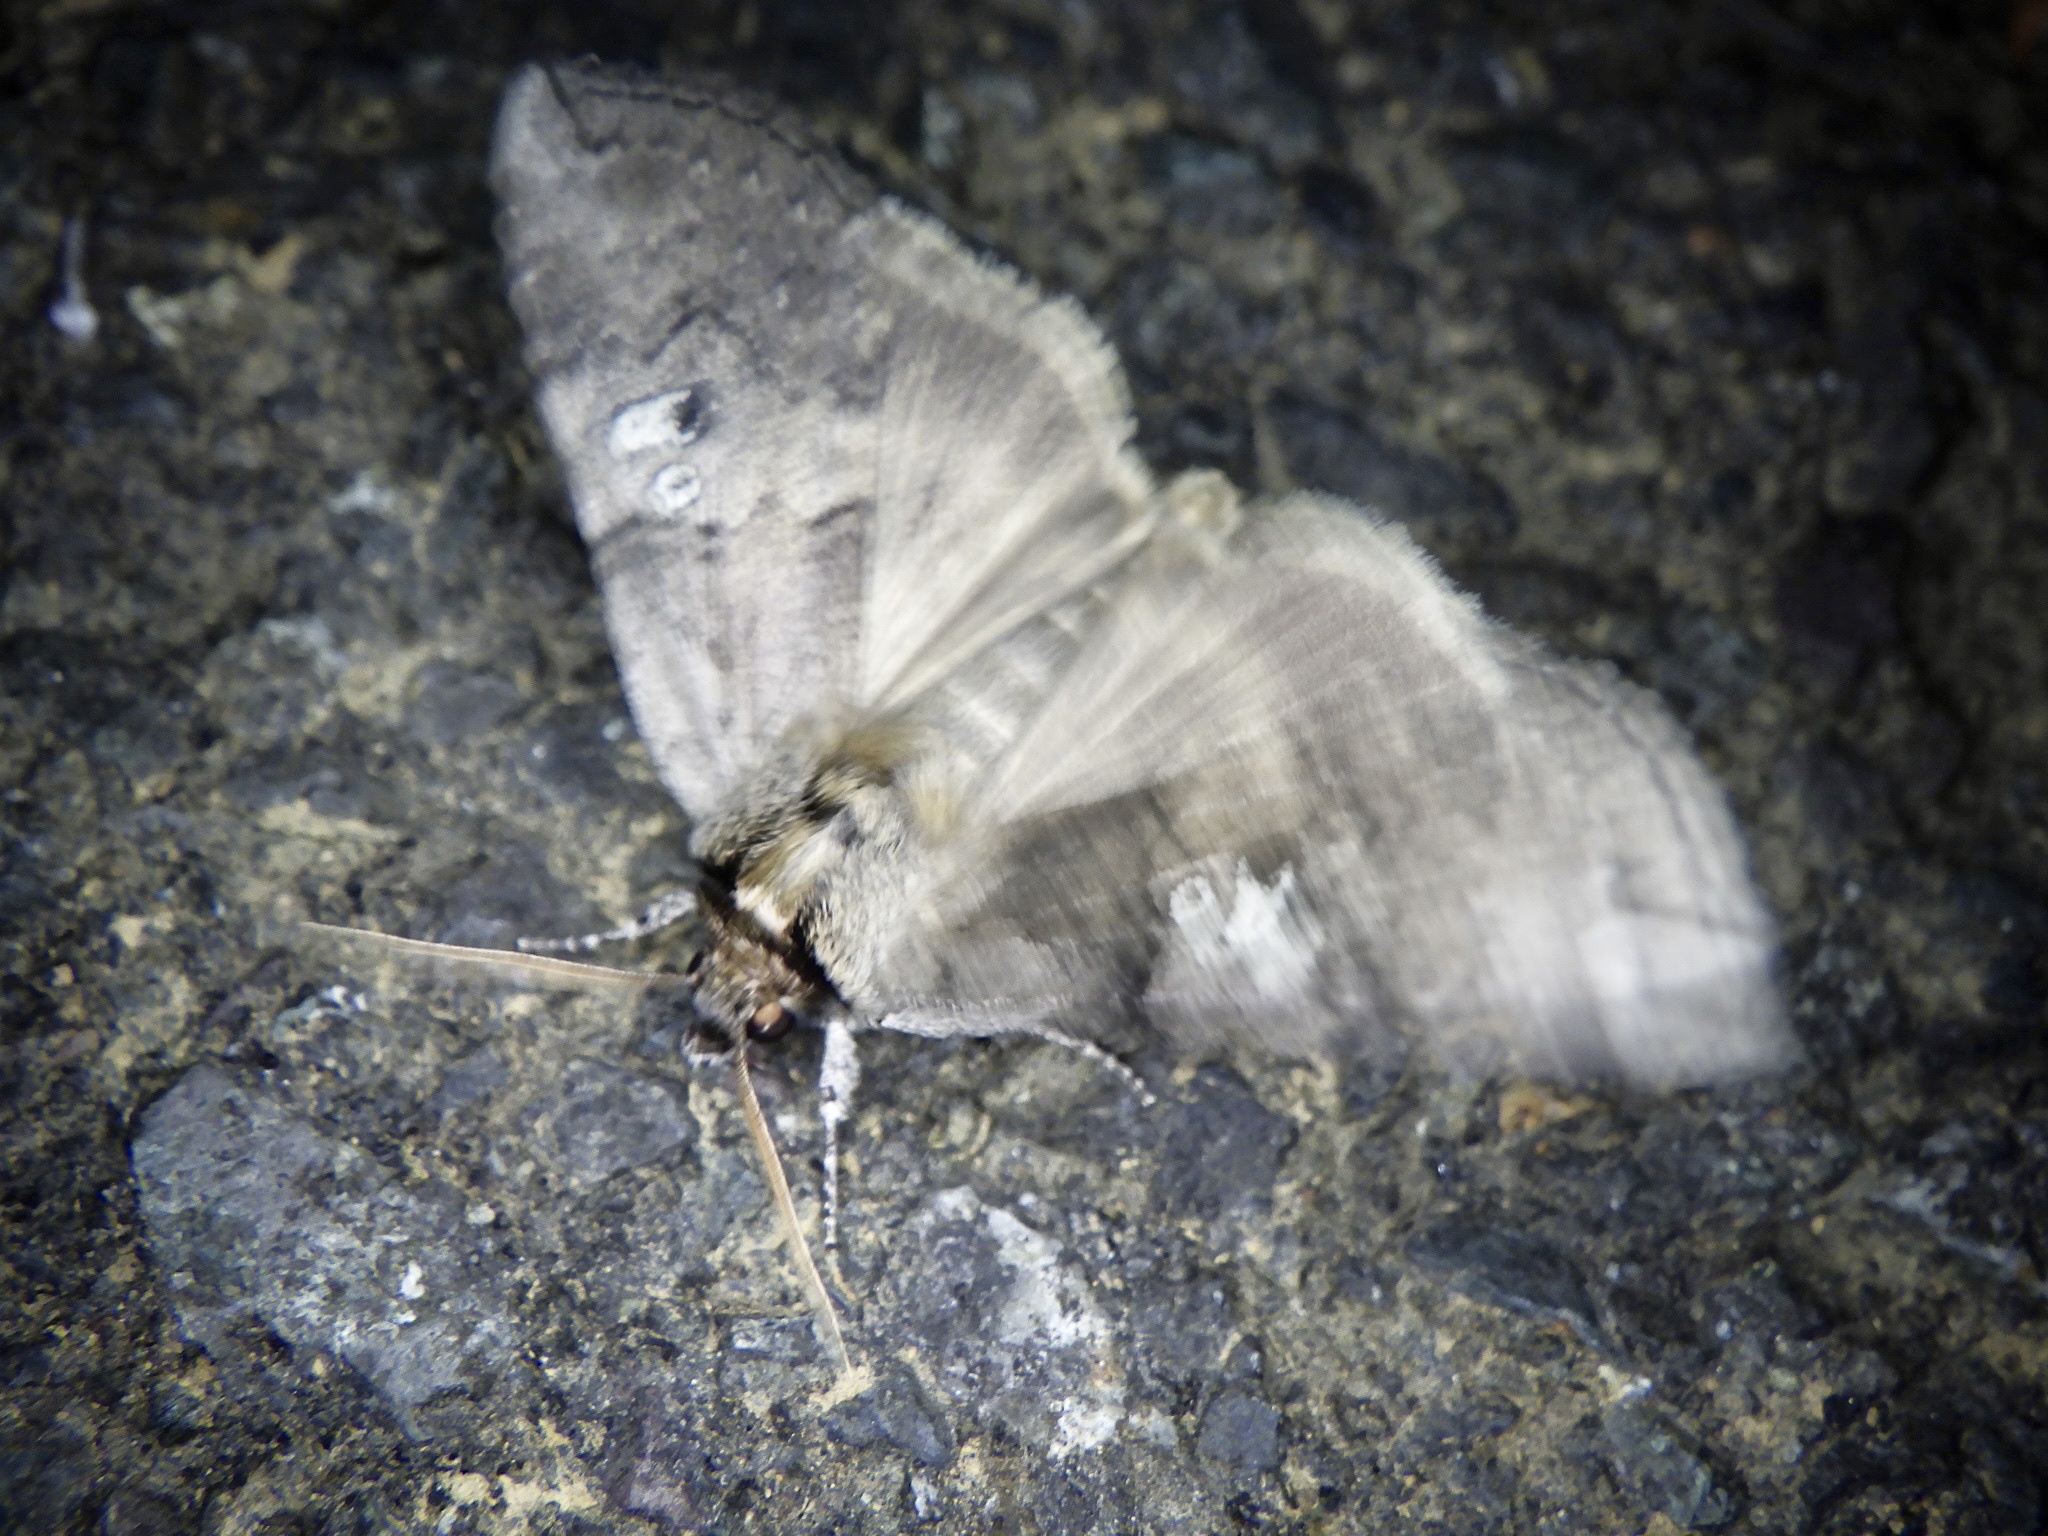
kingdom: Animalia
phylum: Arthropoda
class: Insecta
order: Lepidoptera
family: Drepanidae
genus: Tethea
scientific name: Tethea intensa
